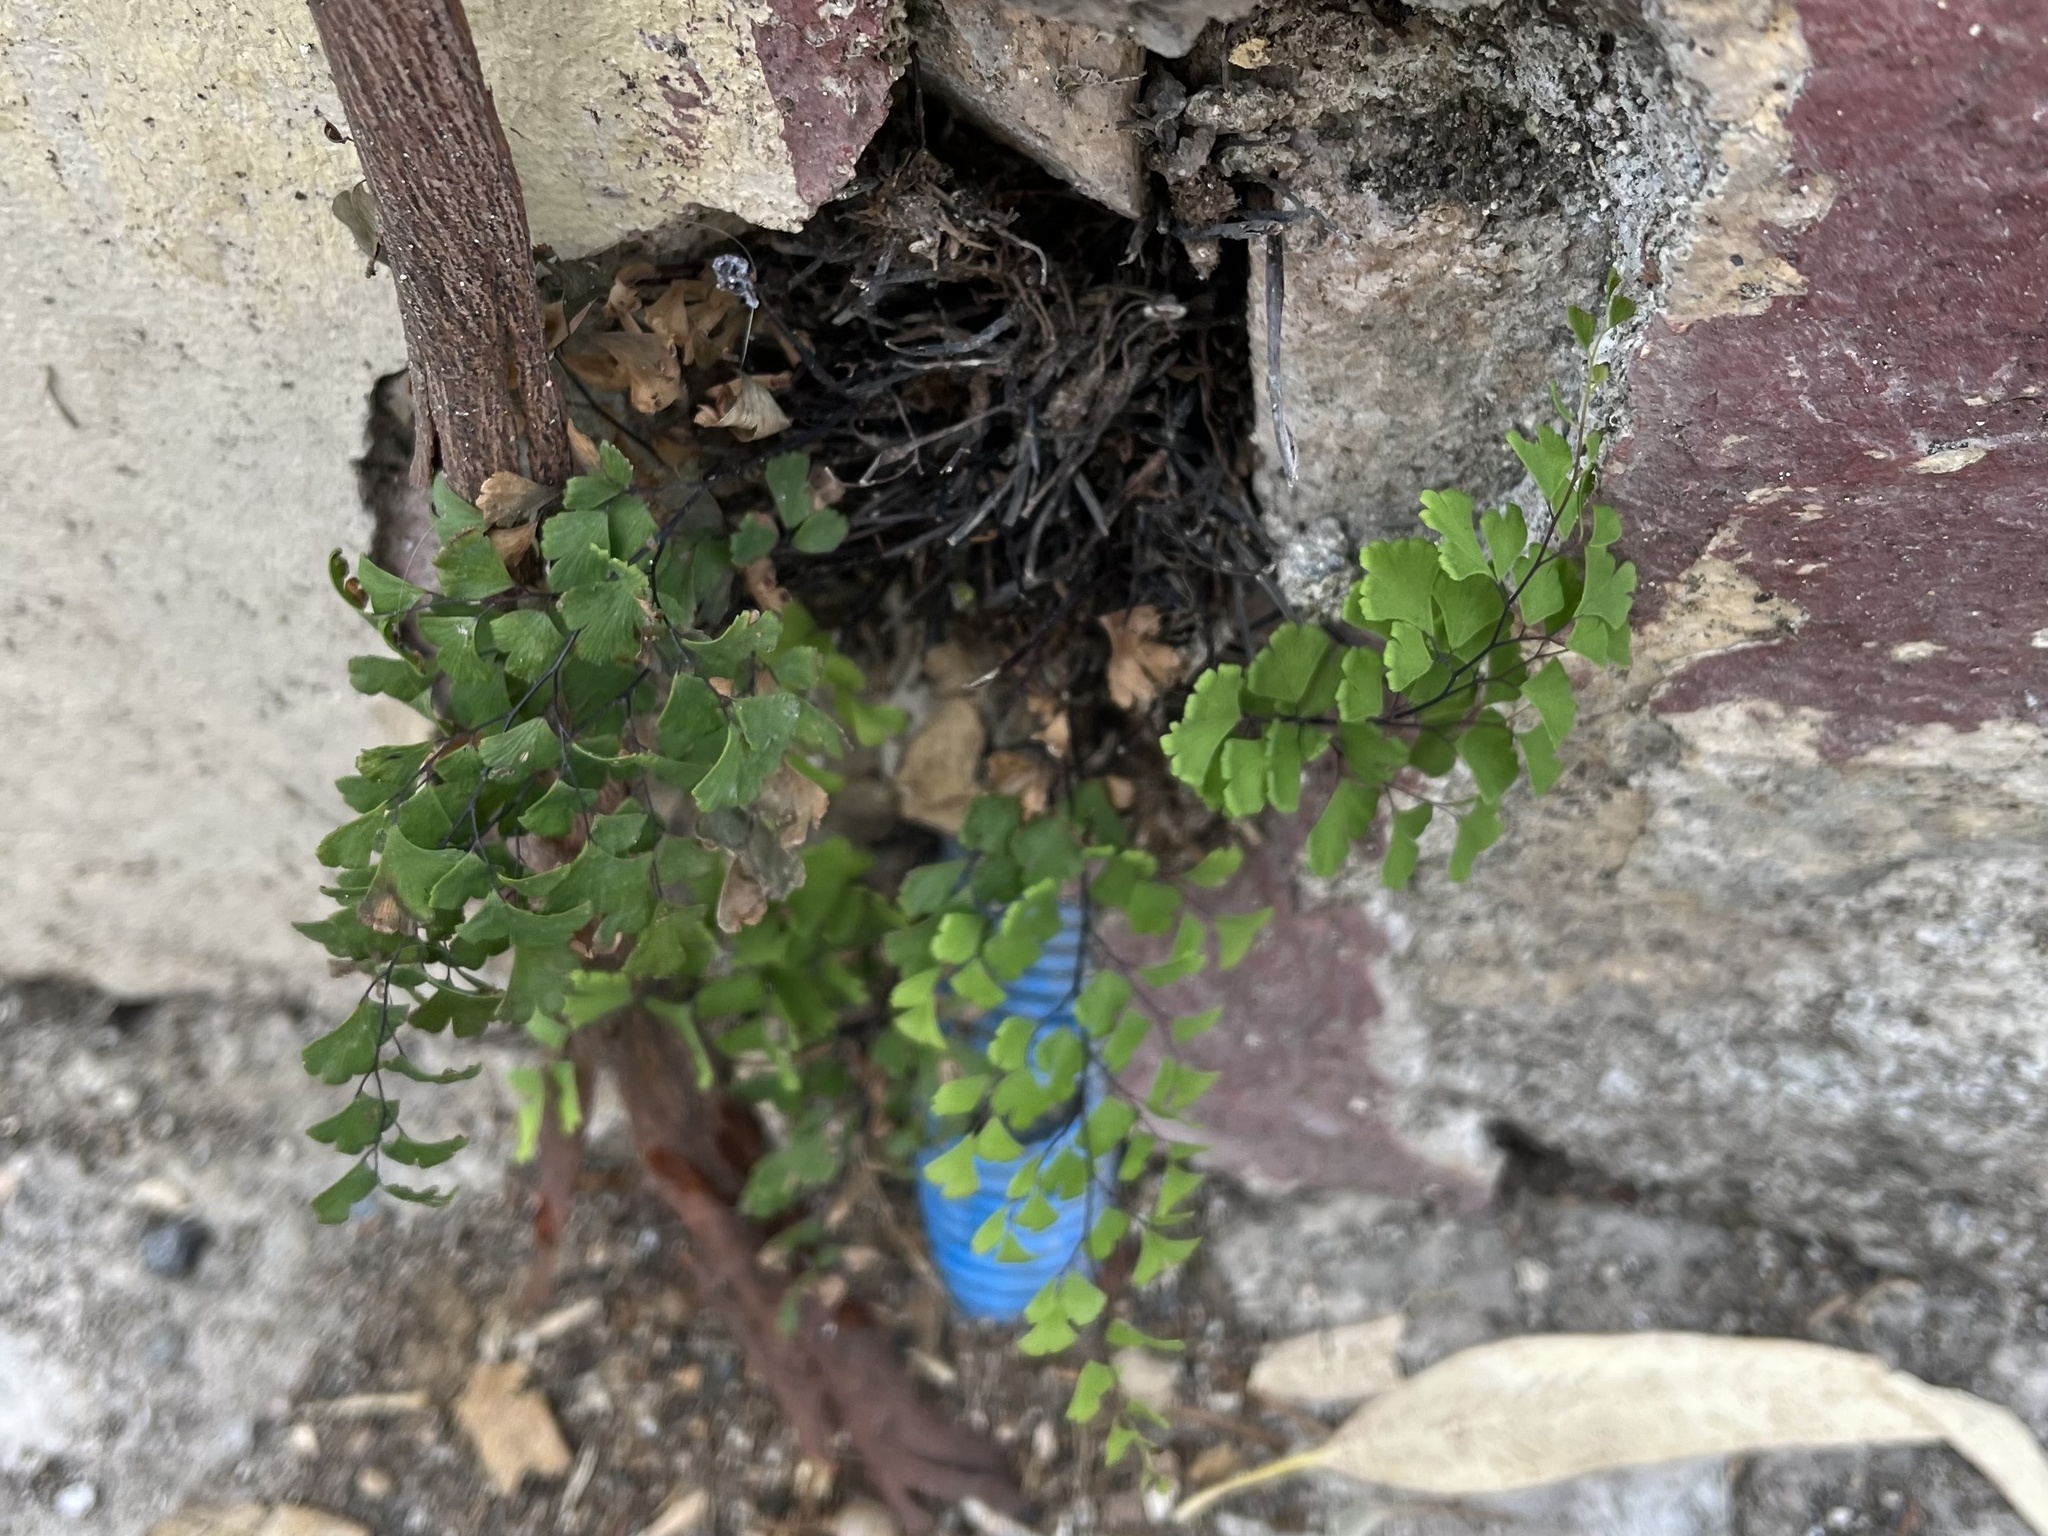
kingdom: Plantae
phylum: Tracheophyta
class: Polypodiopsida
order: Polypodiales
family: Pteridaceae
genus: Adiantum
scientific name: Adiantum capillus-veneris
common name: Maidenhair fern
